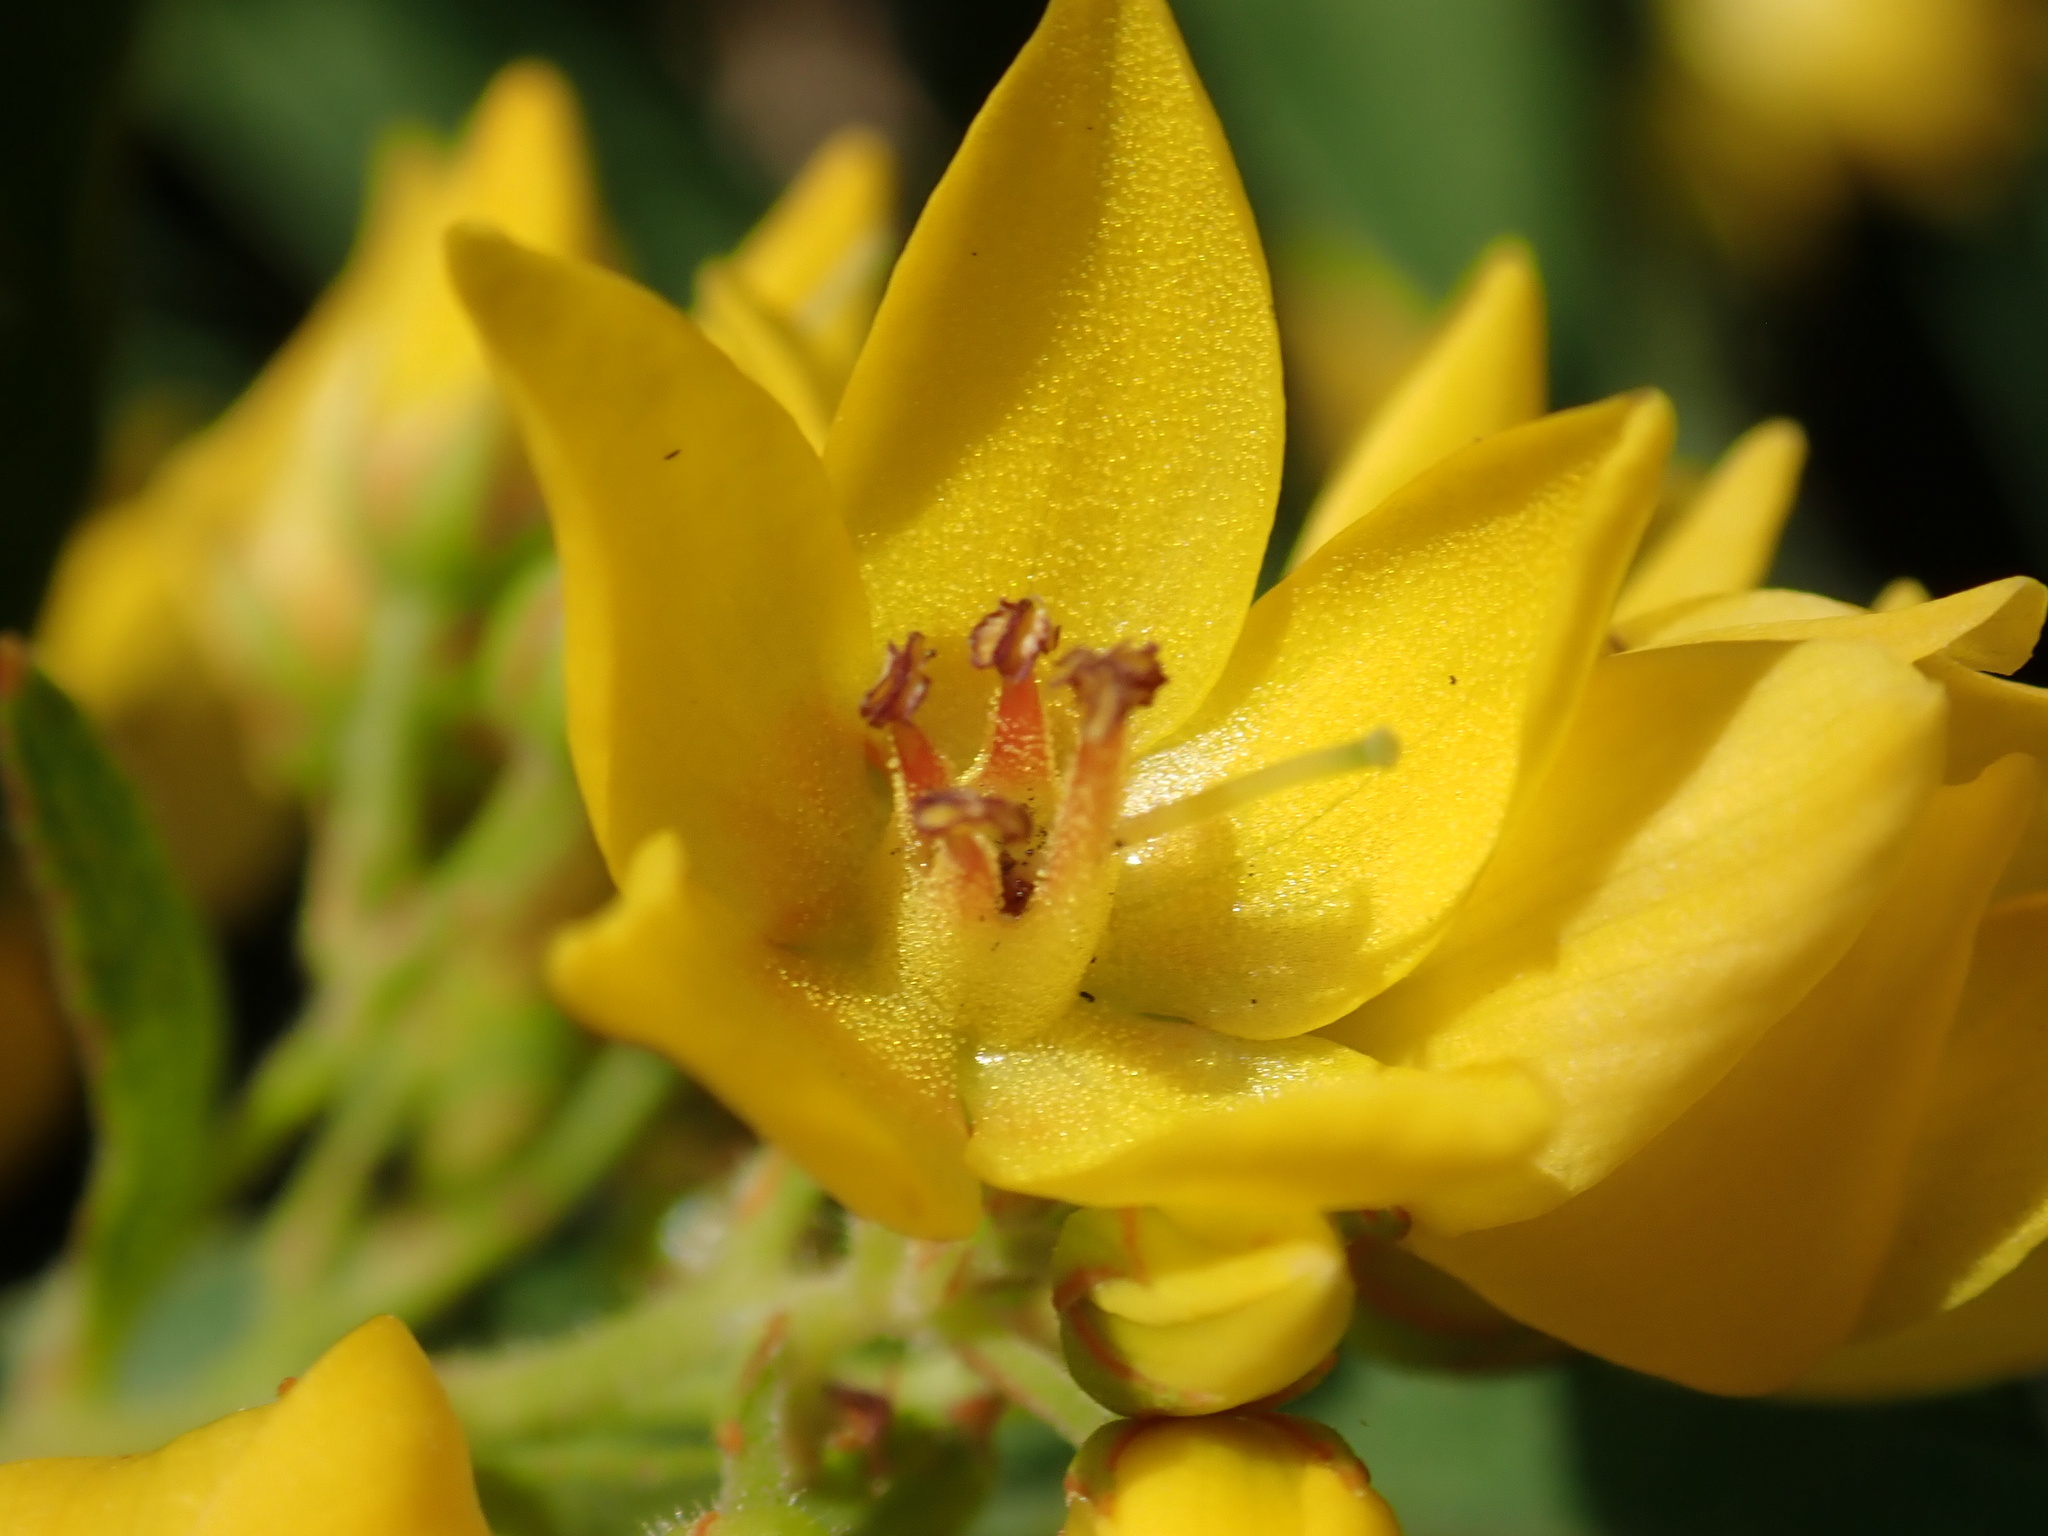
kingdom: Plantae
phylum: Tracheophyta
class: Magnoliopsida
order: Ericales
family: Primulaceae
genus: Lysimachia
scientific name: Lysimachia vulgaris
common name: Yellow loosestrife
